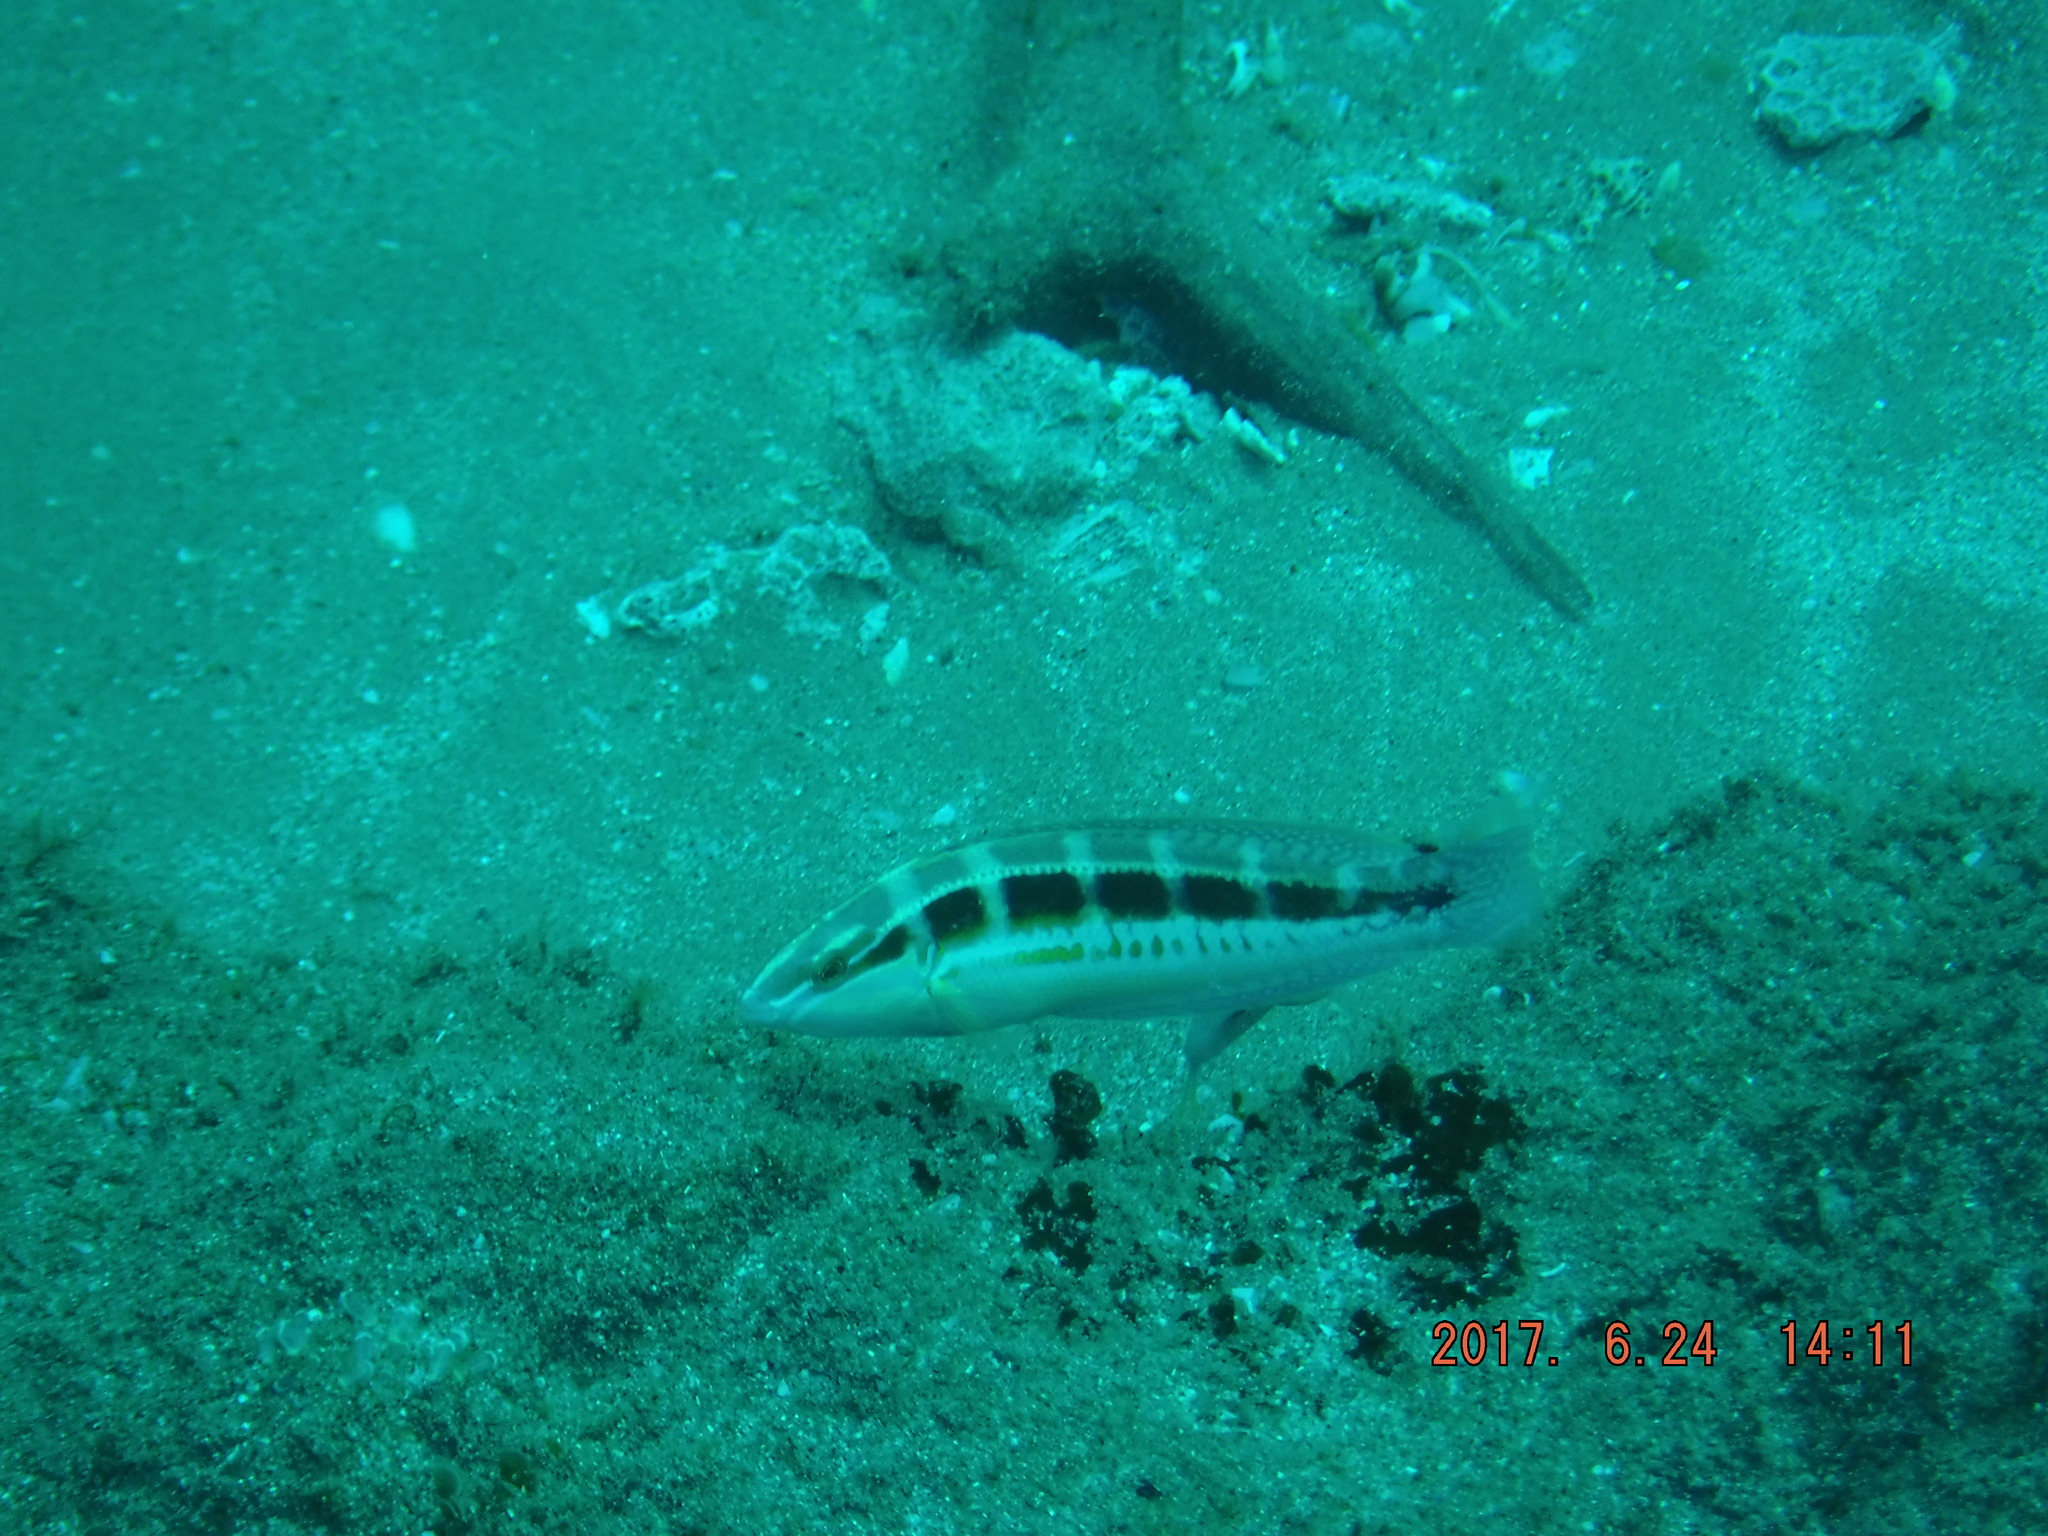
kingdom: Animalia
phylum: Chordata
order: Perciformes
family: Labridae
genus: Coris
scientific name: Coris caudimacula
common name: Spottail coris
